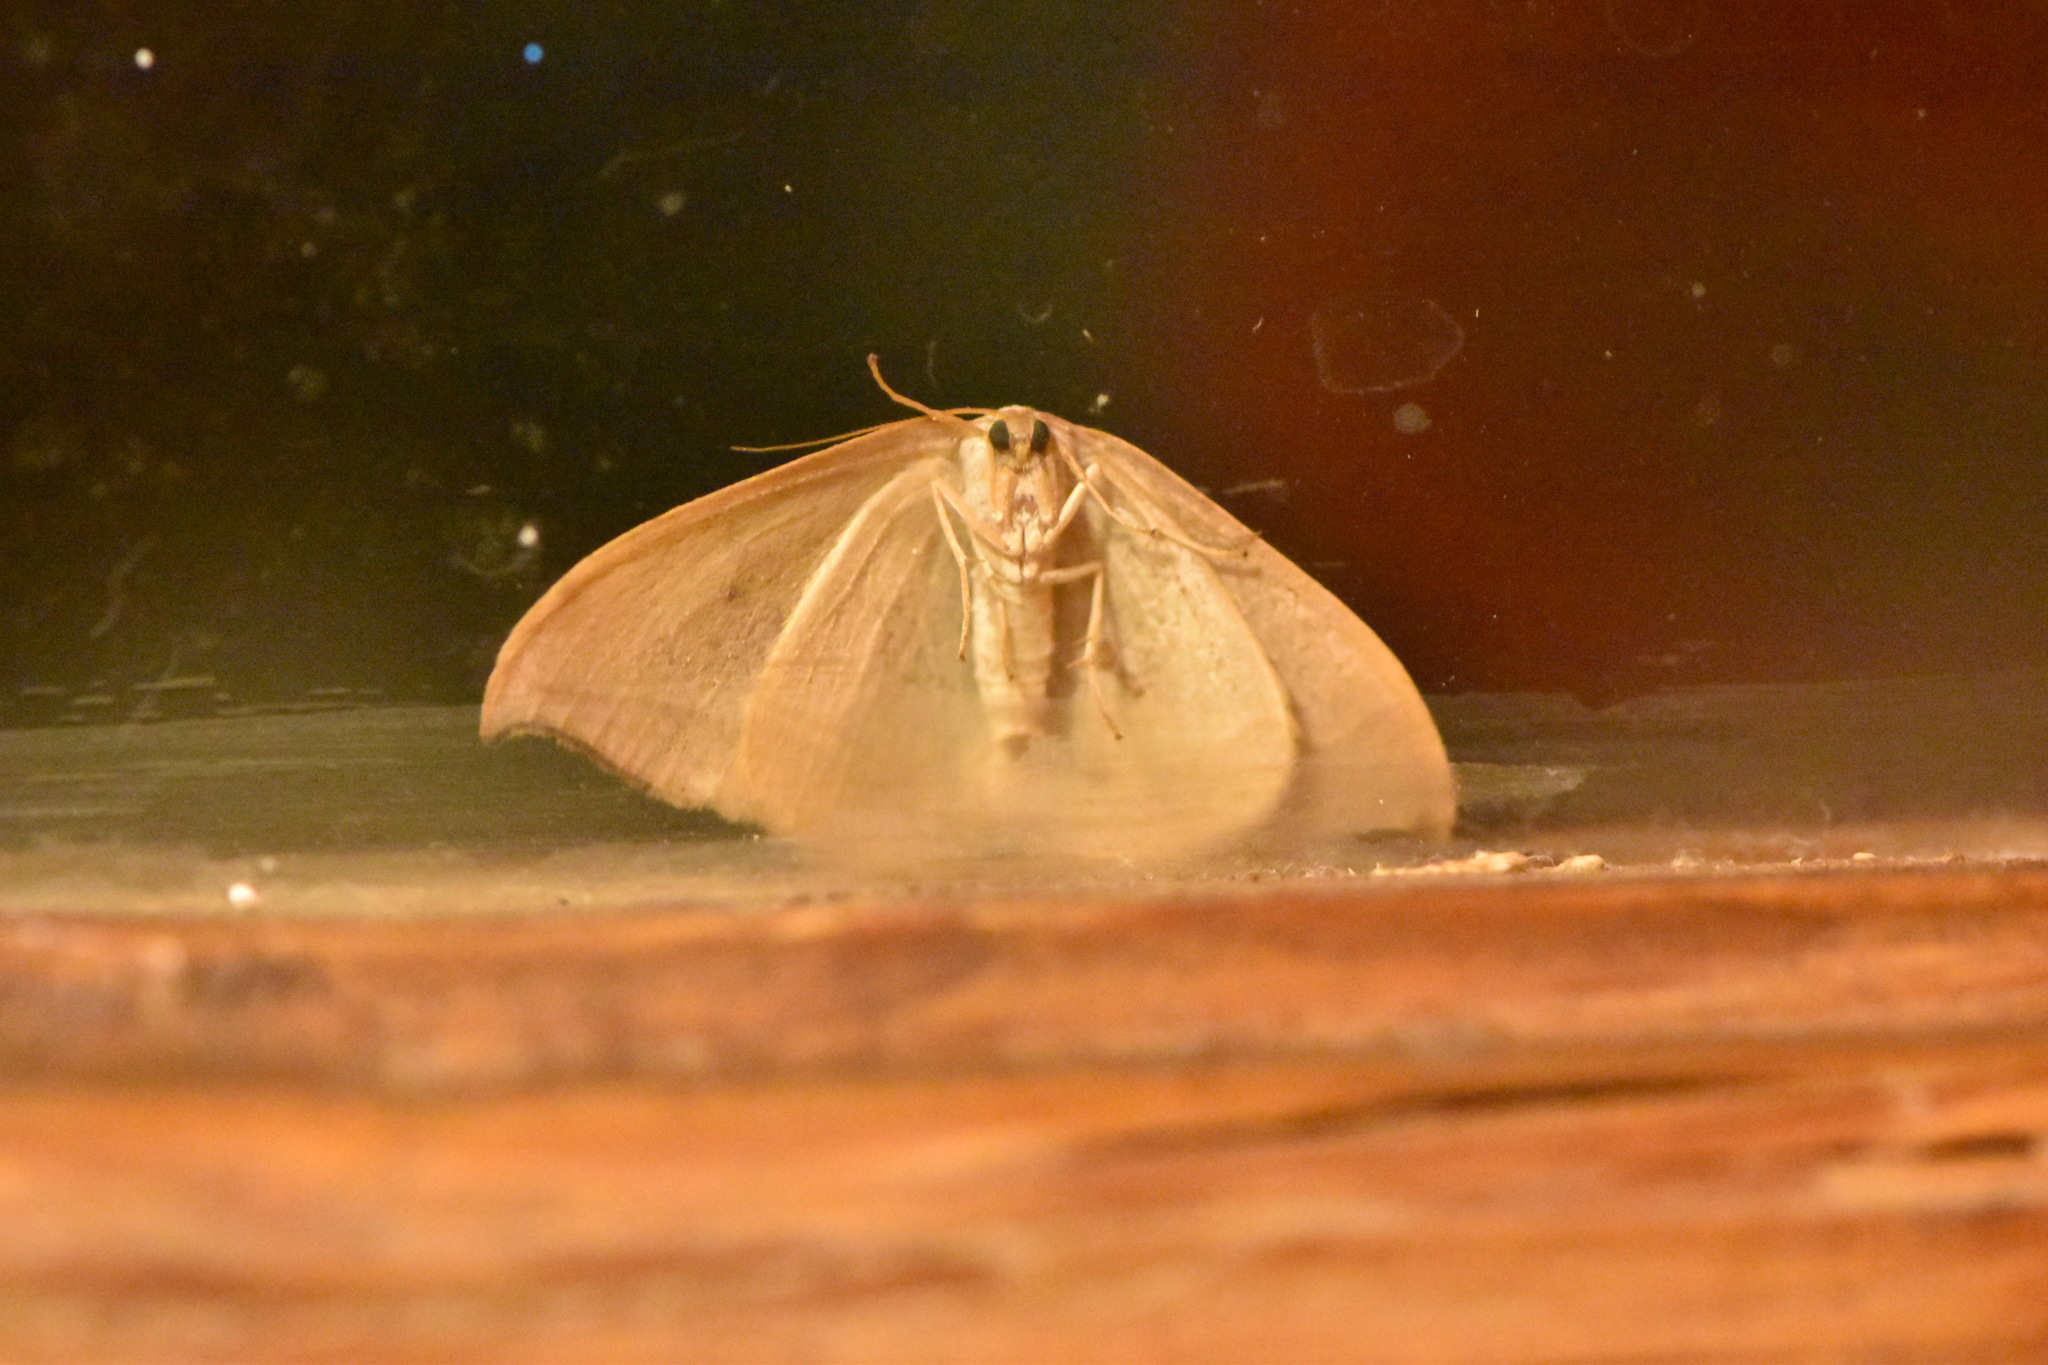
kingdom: Animalia
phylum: Arthropoda
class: Insecta
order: Lepidoptera
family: Drepanidae
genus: Watsonalla
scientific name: Watsonalla uncinula
